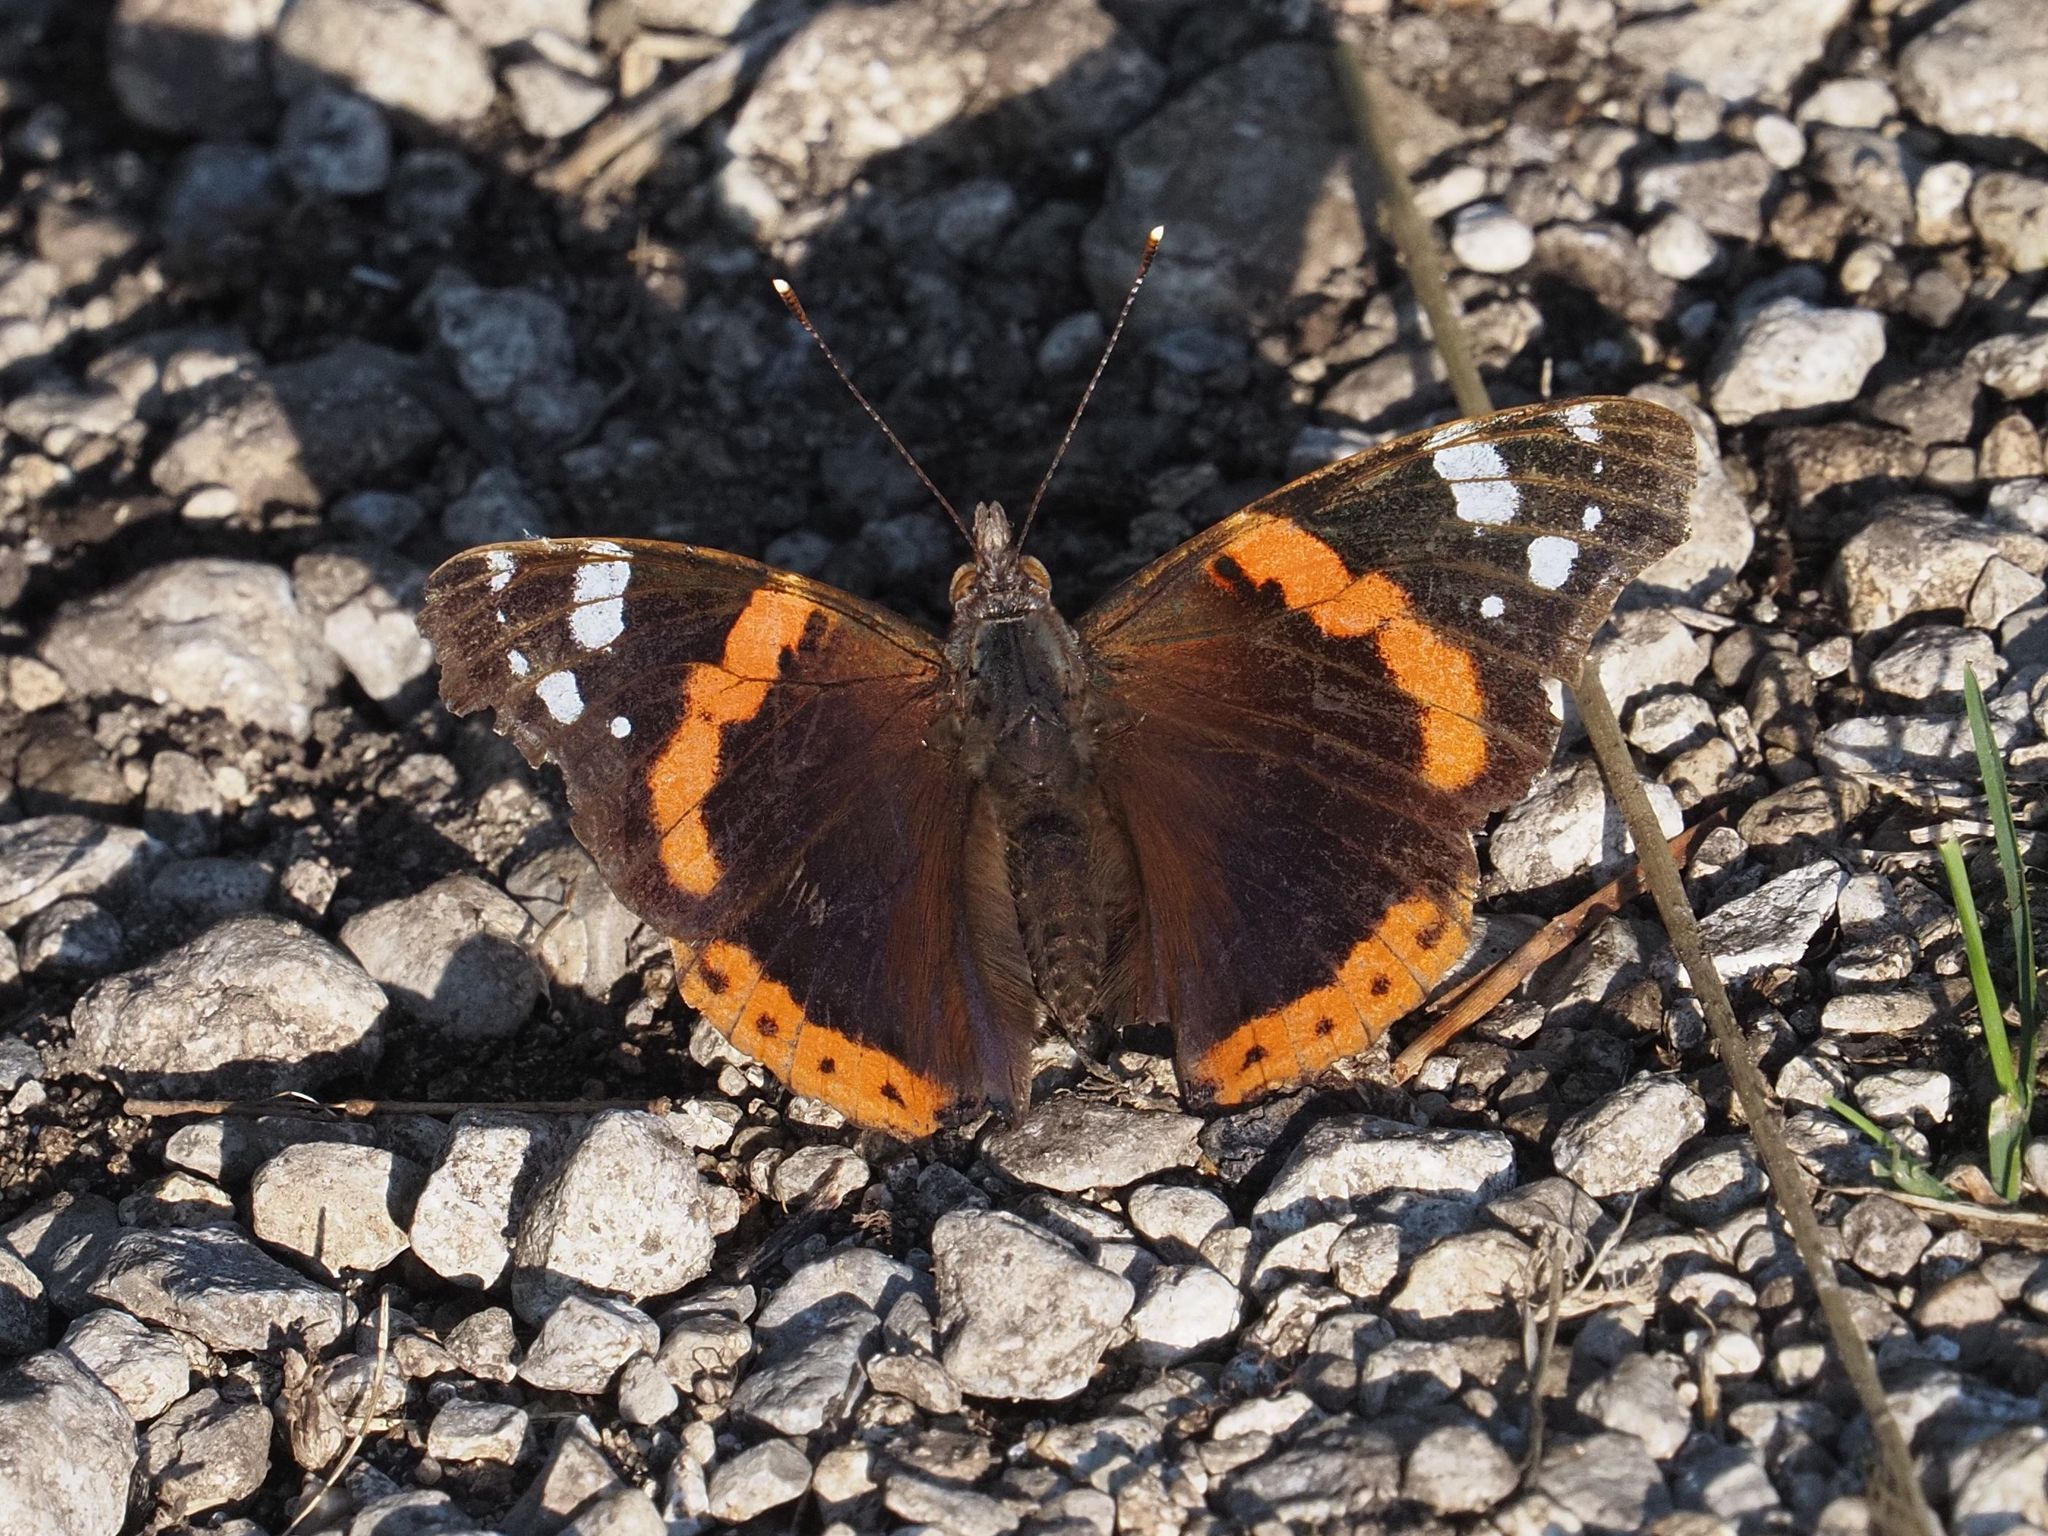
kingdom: Animalia
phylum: Arthropoda
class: Insecta
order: Lepidoptera
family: Nymphalidae
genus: Vanessa
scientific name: Vanessa atalanta
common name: Red admiral
